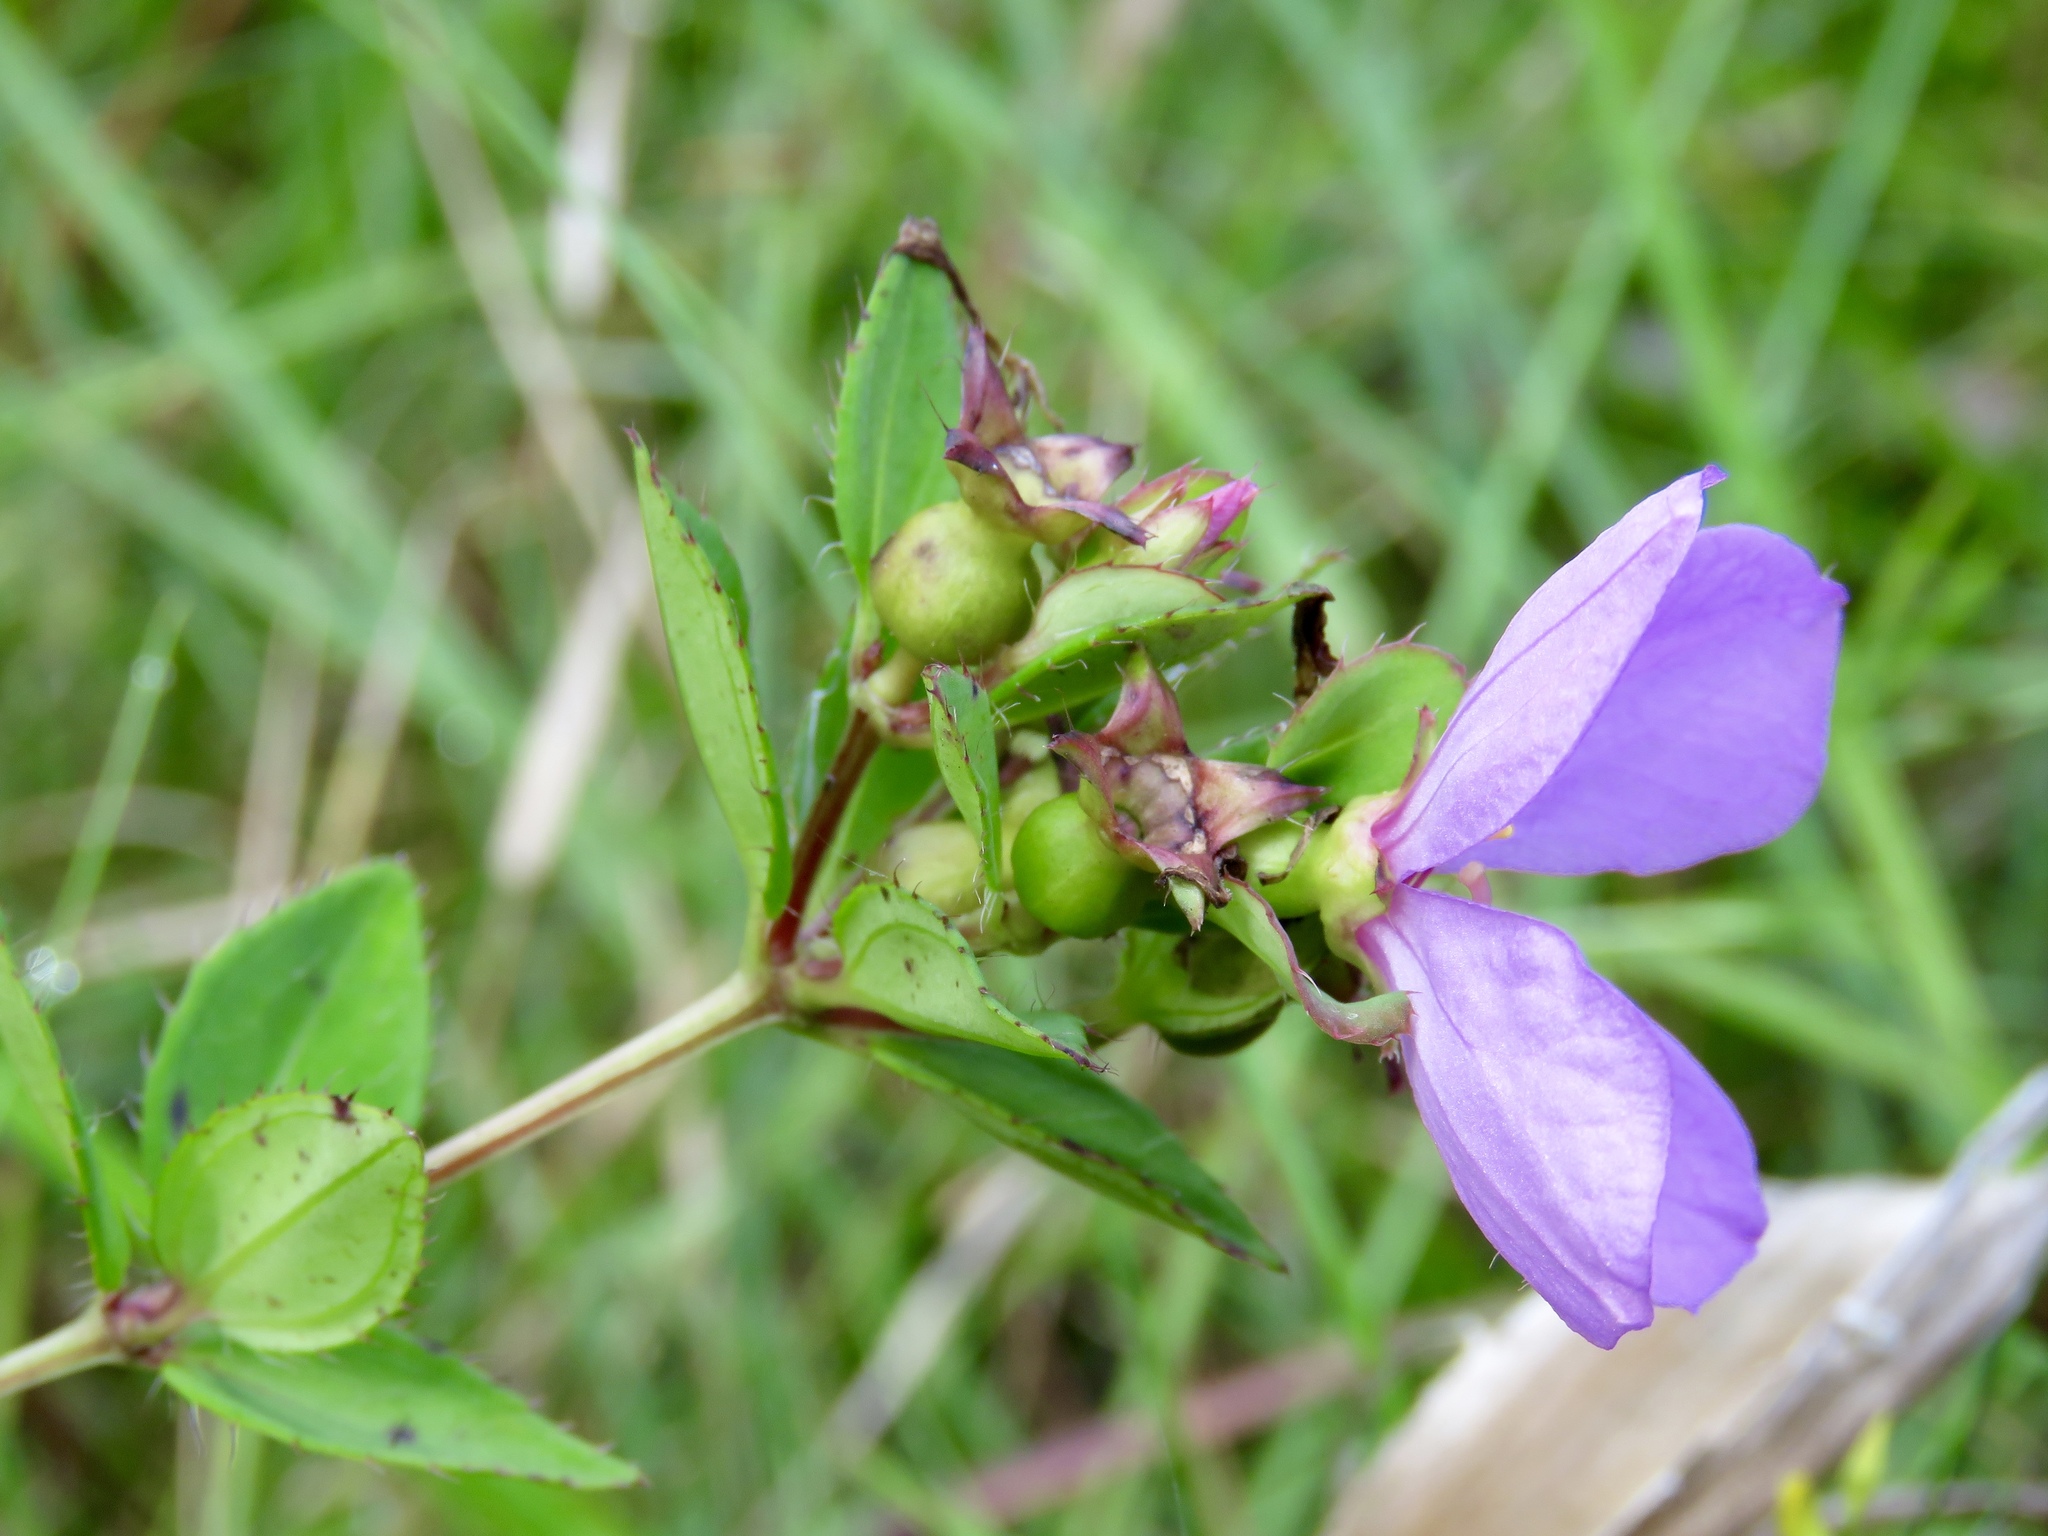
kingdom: Plantae
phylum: Tracheophyta
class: Magnoliopsida
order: Myrtales
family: Melastomataceae
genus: Rhexia
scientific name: Rhexia petiolata
